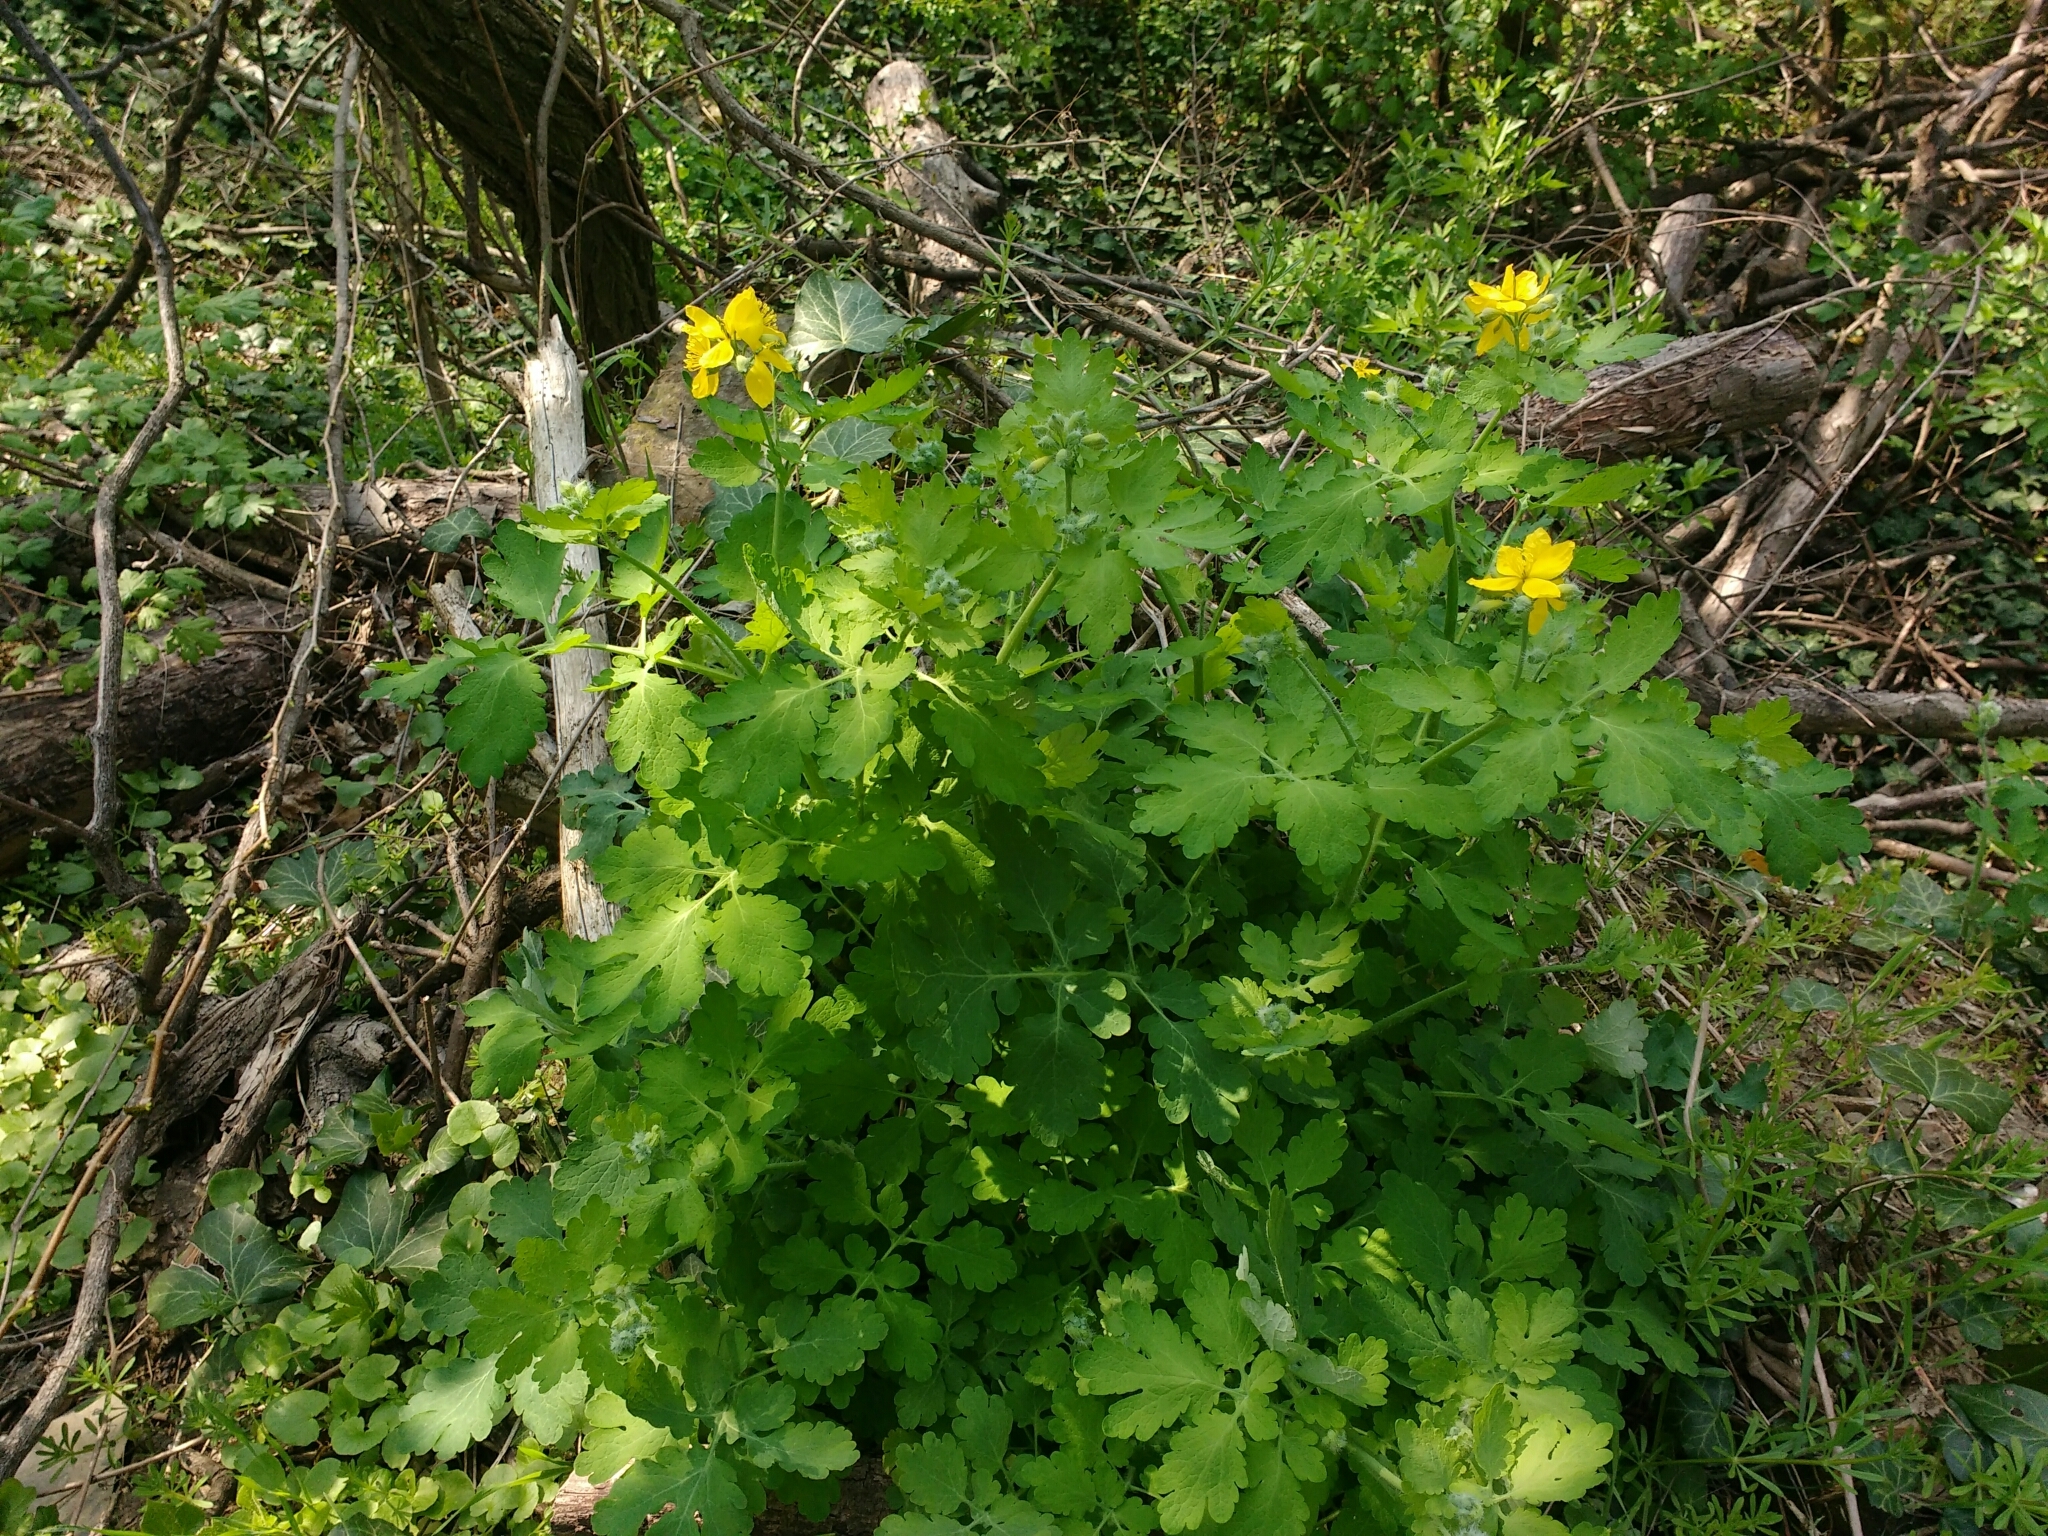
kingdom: Plantae
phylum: Tracheophyta
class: Magnoliopsida
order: Ranunculales
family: Papaveraceae
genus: Chelidonium
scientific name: Chelidonium majus
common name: Greater celandine
